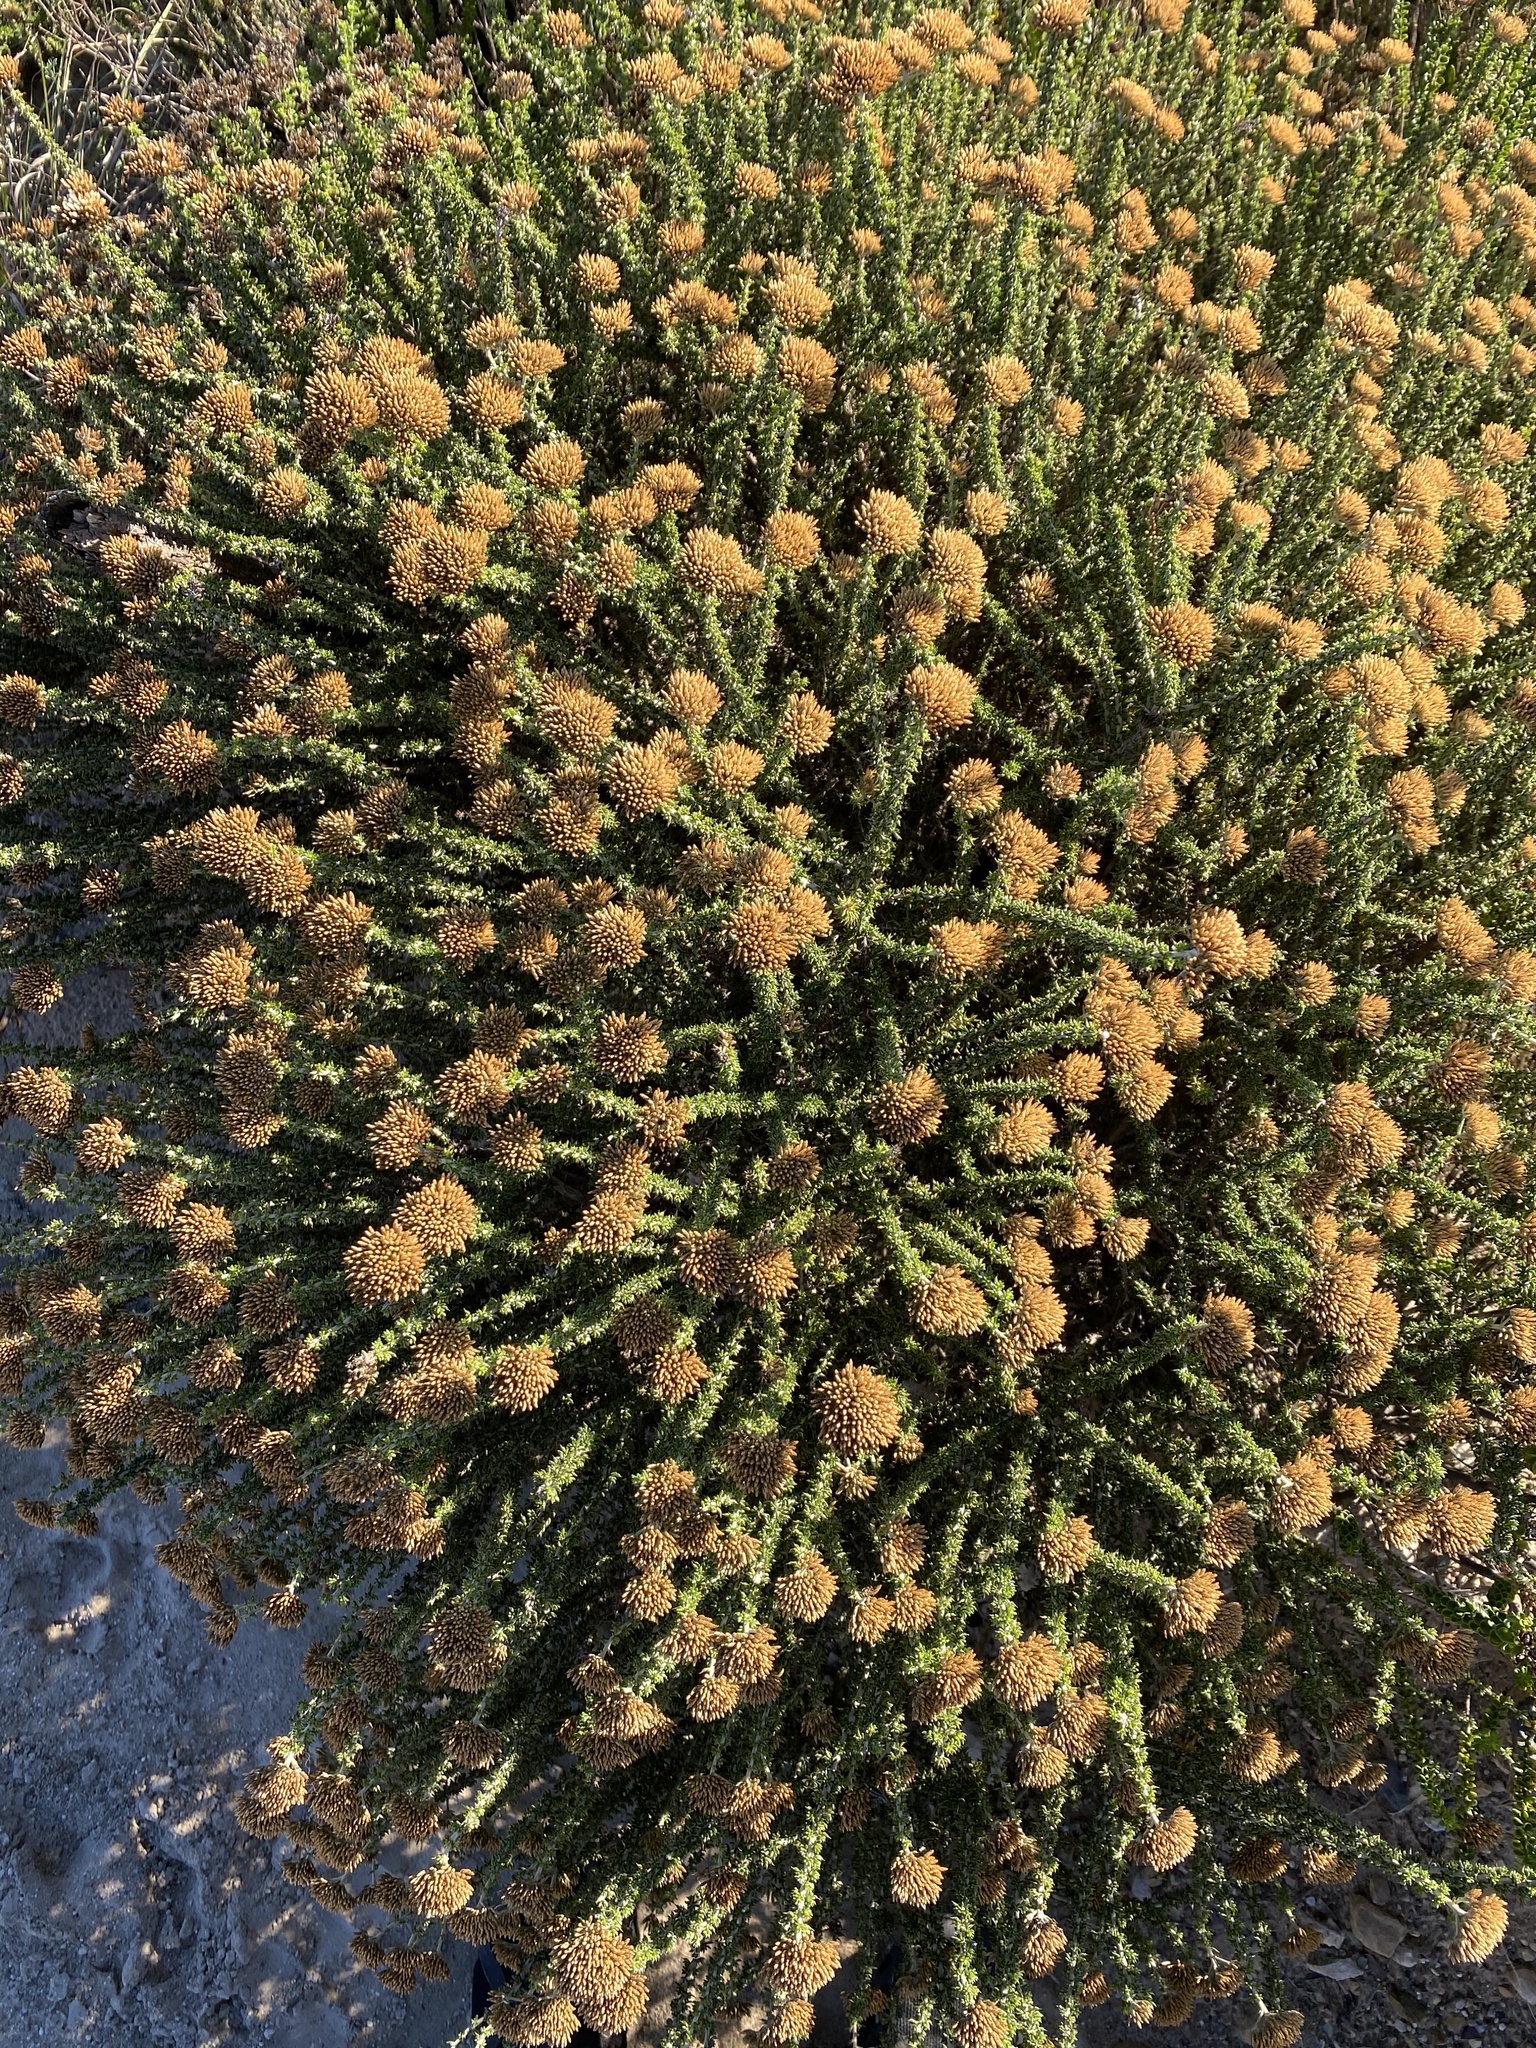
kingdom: Plantae
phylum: Tracheophyta
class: Magnoliopsida
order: Asterales
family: Asteraceae
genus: Metalasia
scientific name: Metalasia luteola
